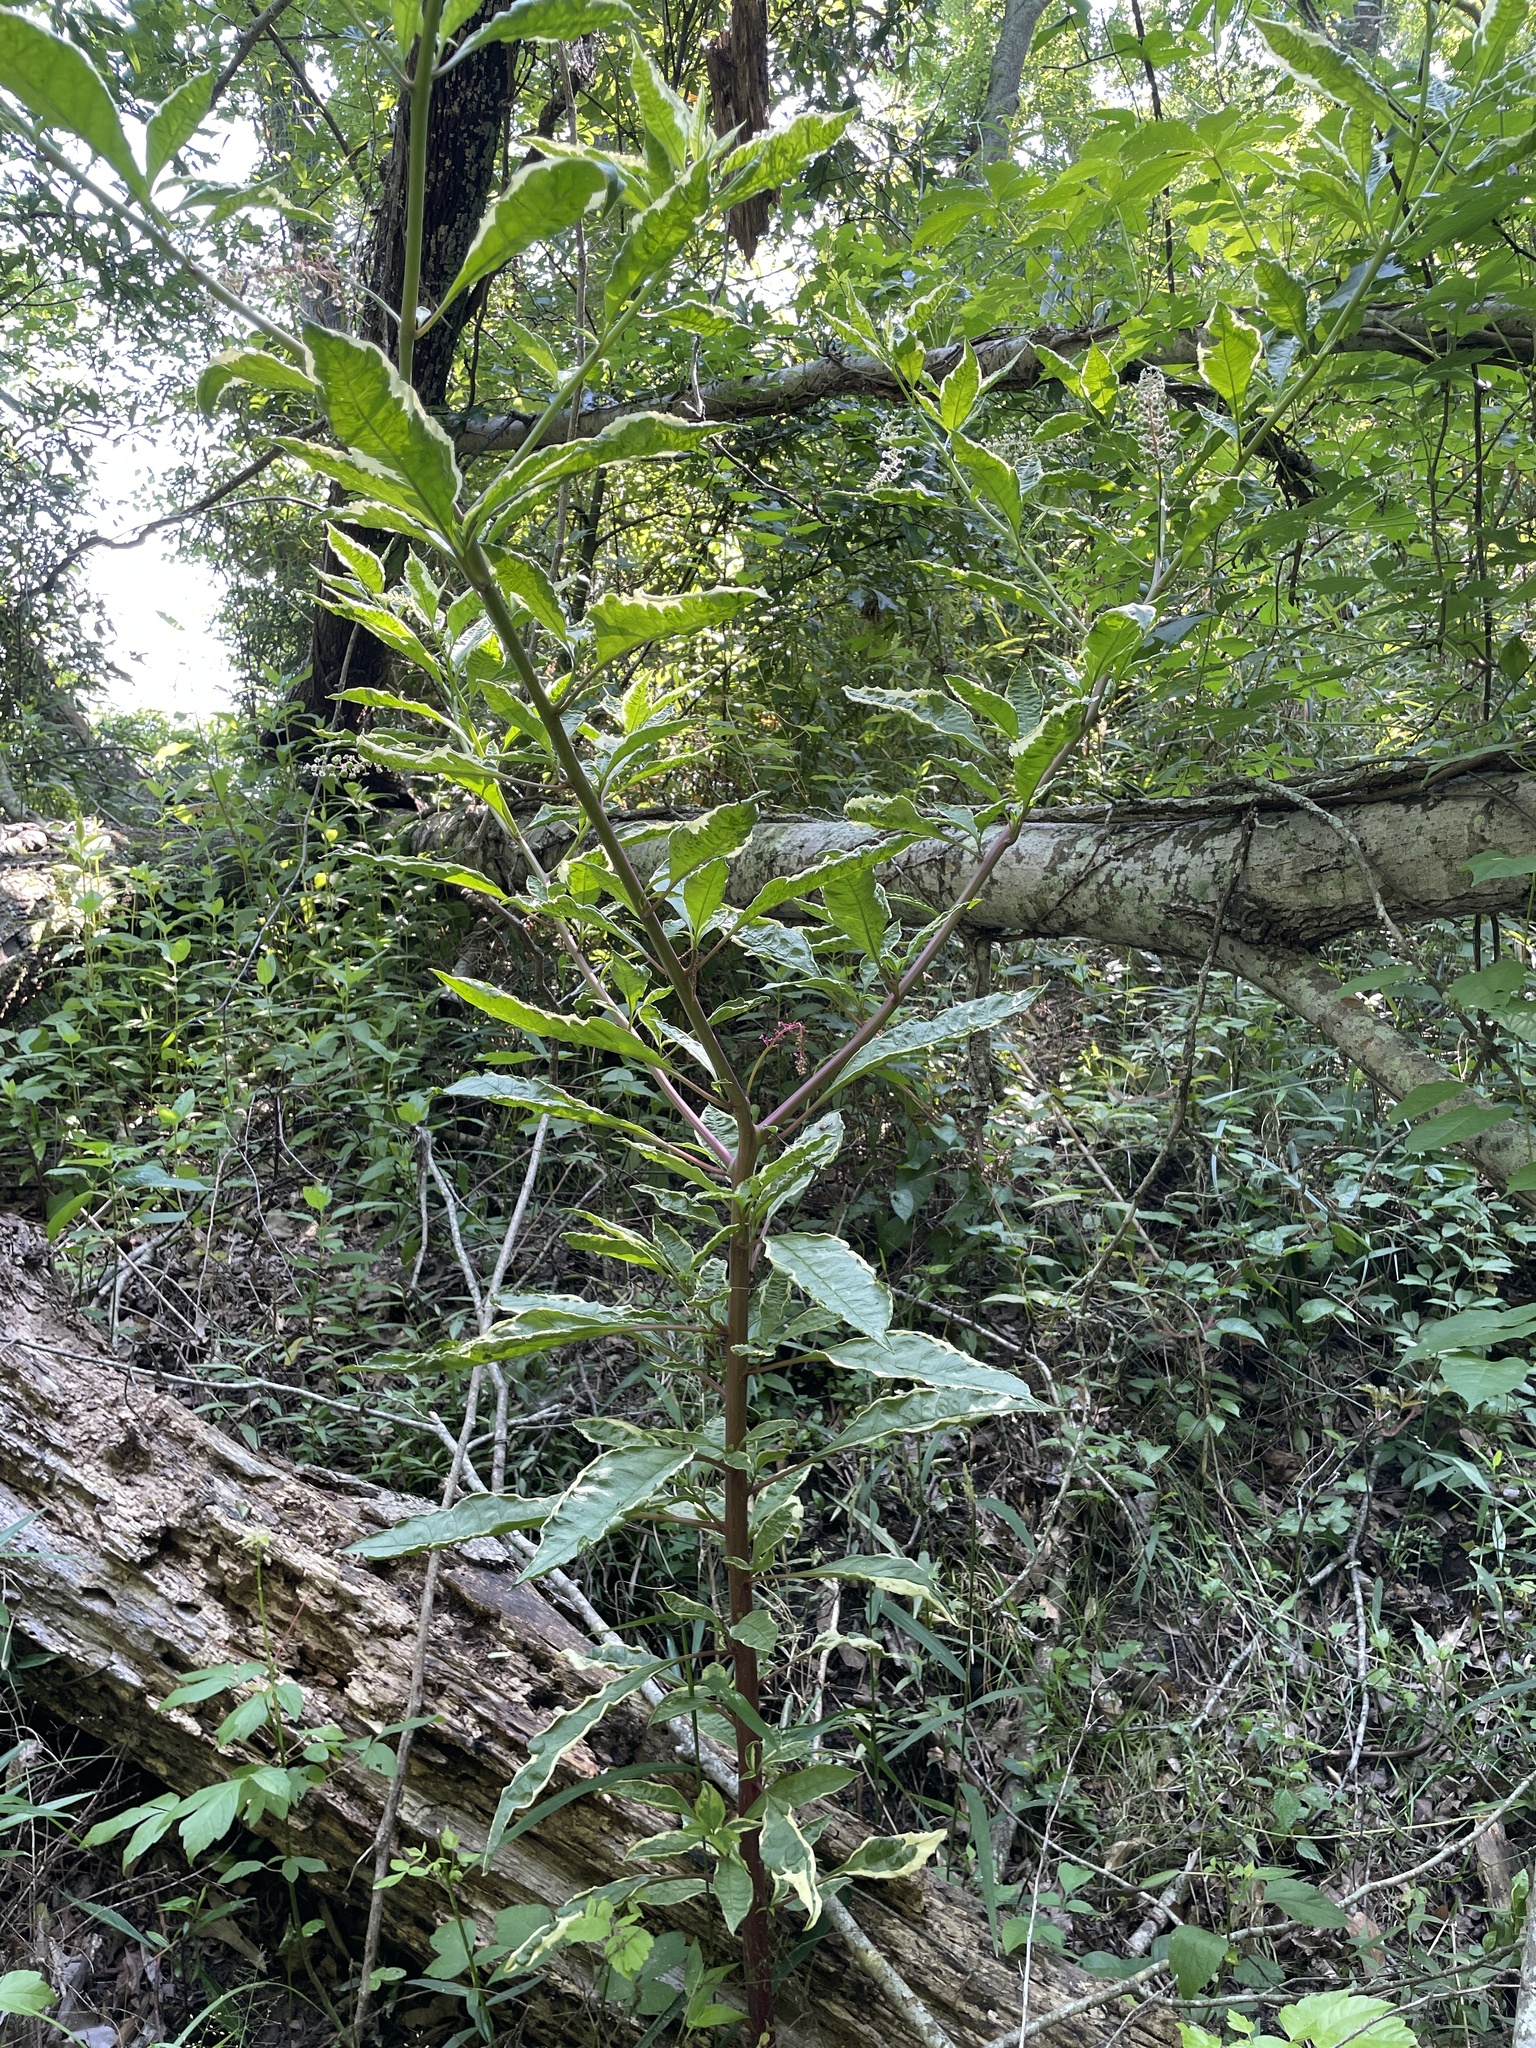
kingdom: Plantae
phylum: Tracheophyta
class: Magnoliopsida
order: Caryophyllales
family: Phytolaccaceae
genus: Phytolacca
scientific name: Phytolacca americana
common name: American pokeweed
